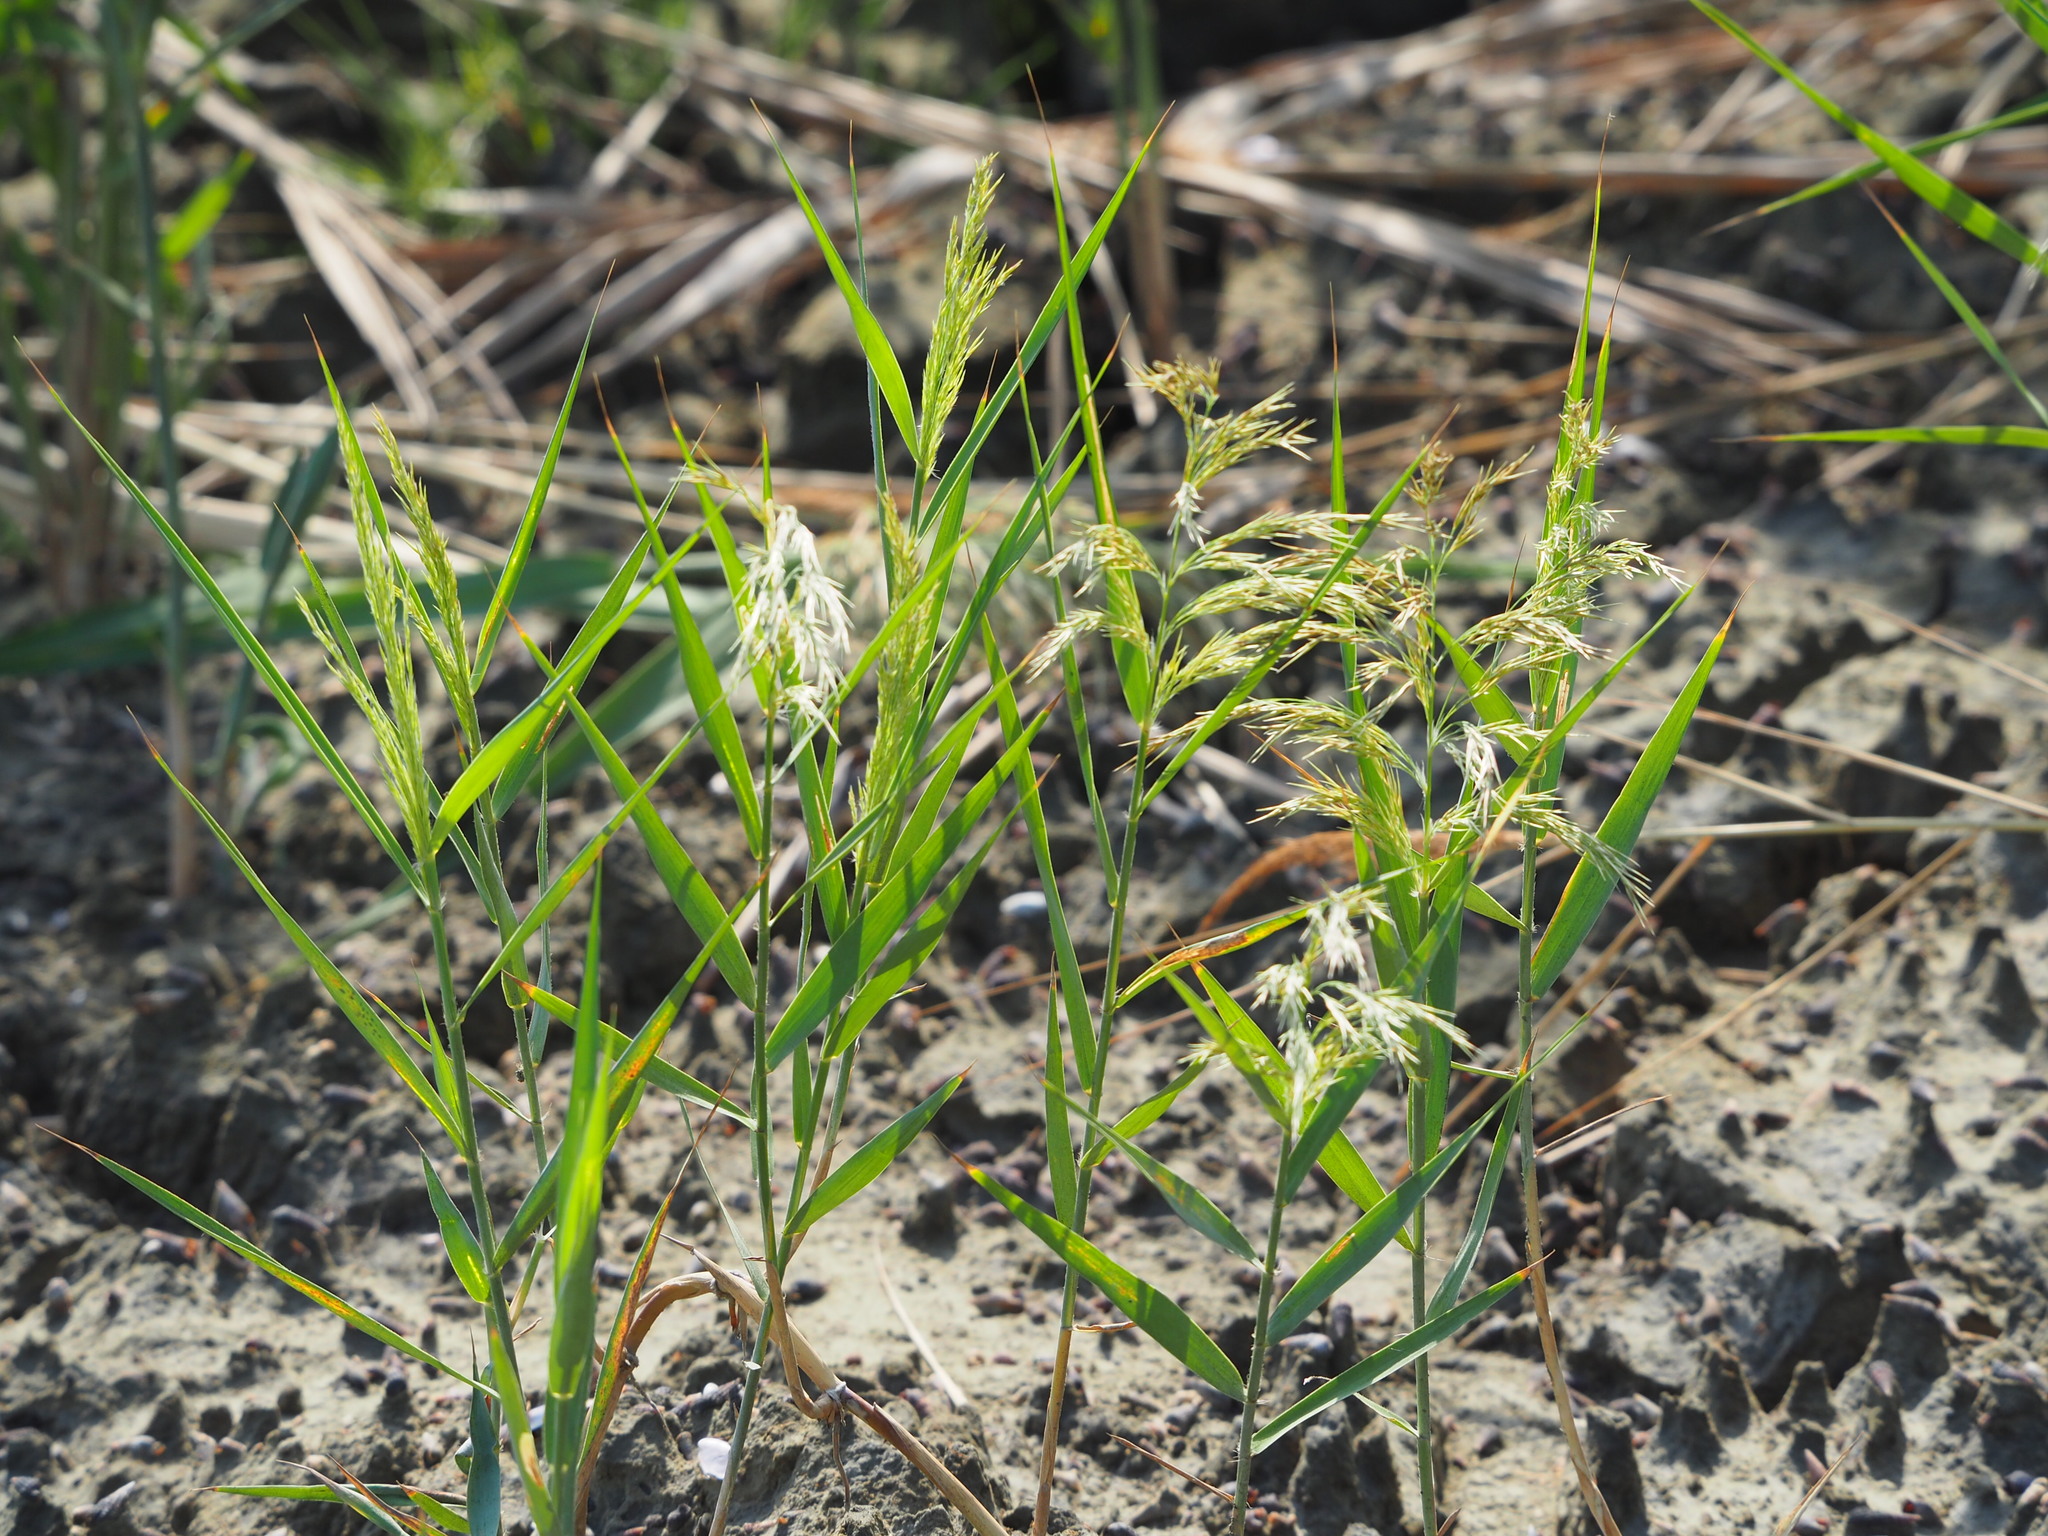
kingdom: Plantae
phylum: Tracheophyta
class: Liliopsida
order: Poales
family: Poaceae
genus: Phragmites
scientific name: Phragmites australis
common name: Common reed
